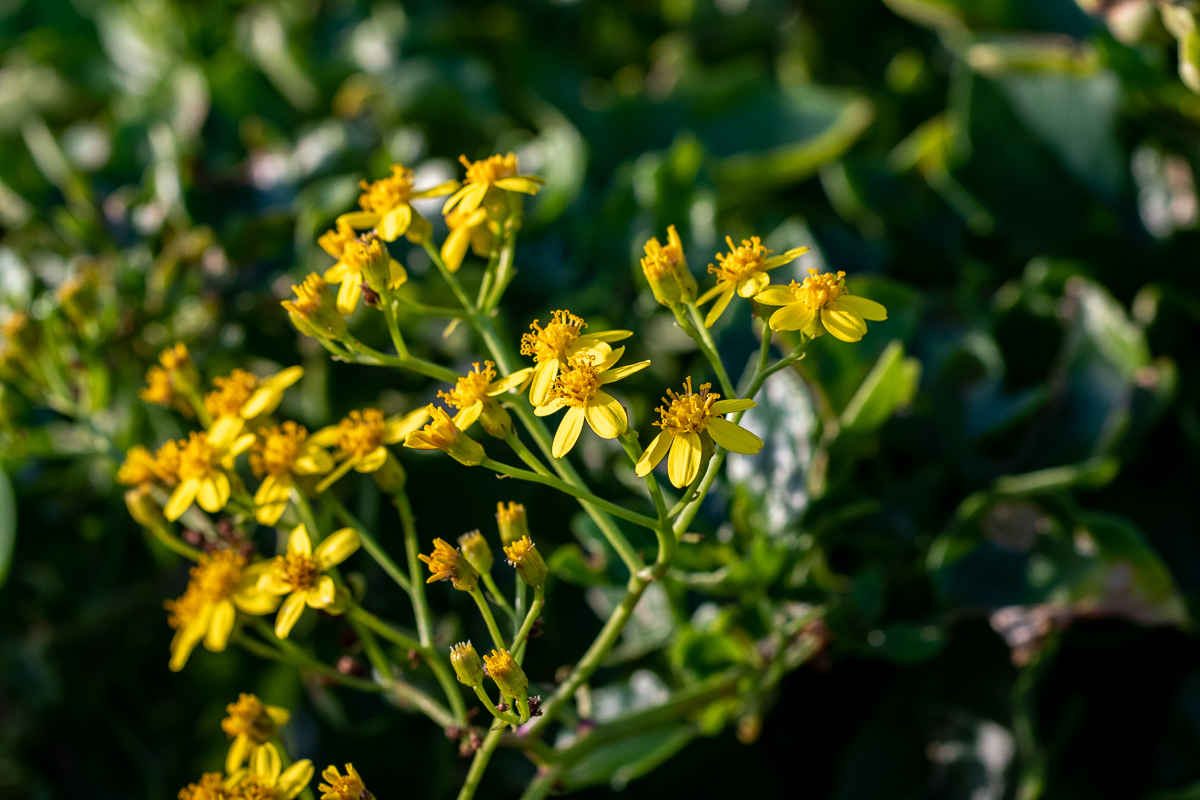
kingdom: Plantae
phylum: Tracheophyta
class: Magnoliopsida
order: Asterales
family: Asteraceae
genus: Senecio
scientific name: Senecio angulatus
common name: Climbing groundsel
